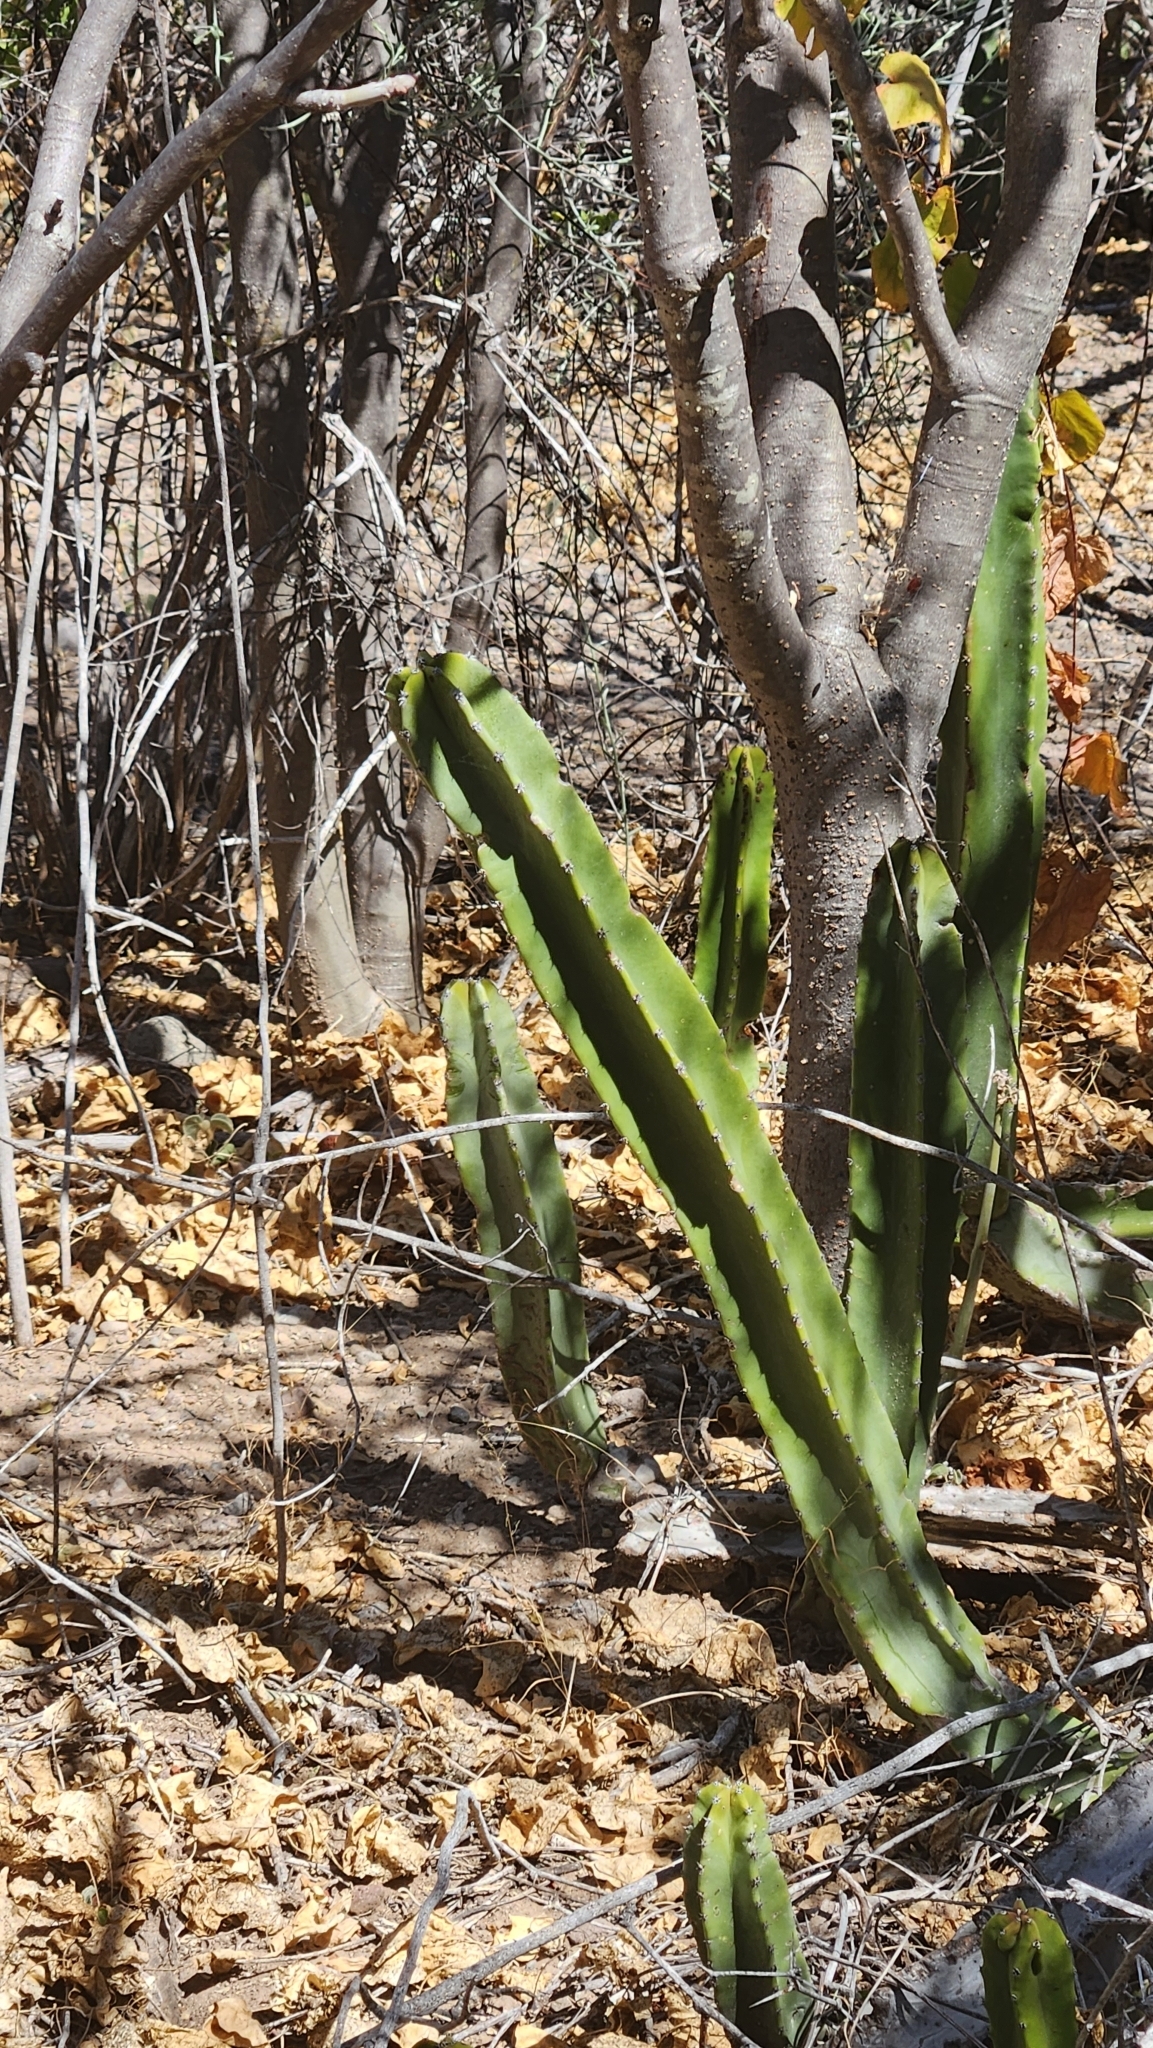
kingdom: Plantae
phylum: Tracheophyta
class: Magnoliopsida
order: Caryophyllales
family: Cactaceae
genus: Pachycereus
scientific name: Pachycereus schottii
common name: Senita cactus
